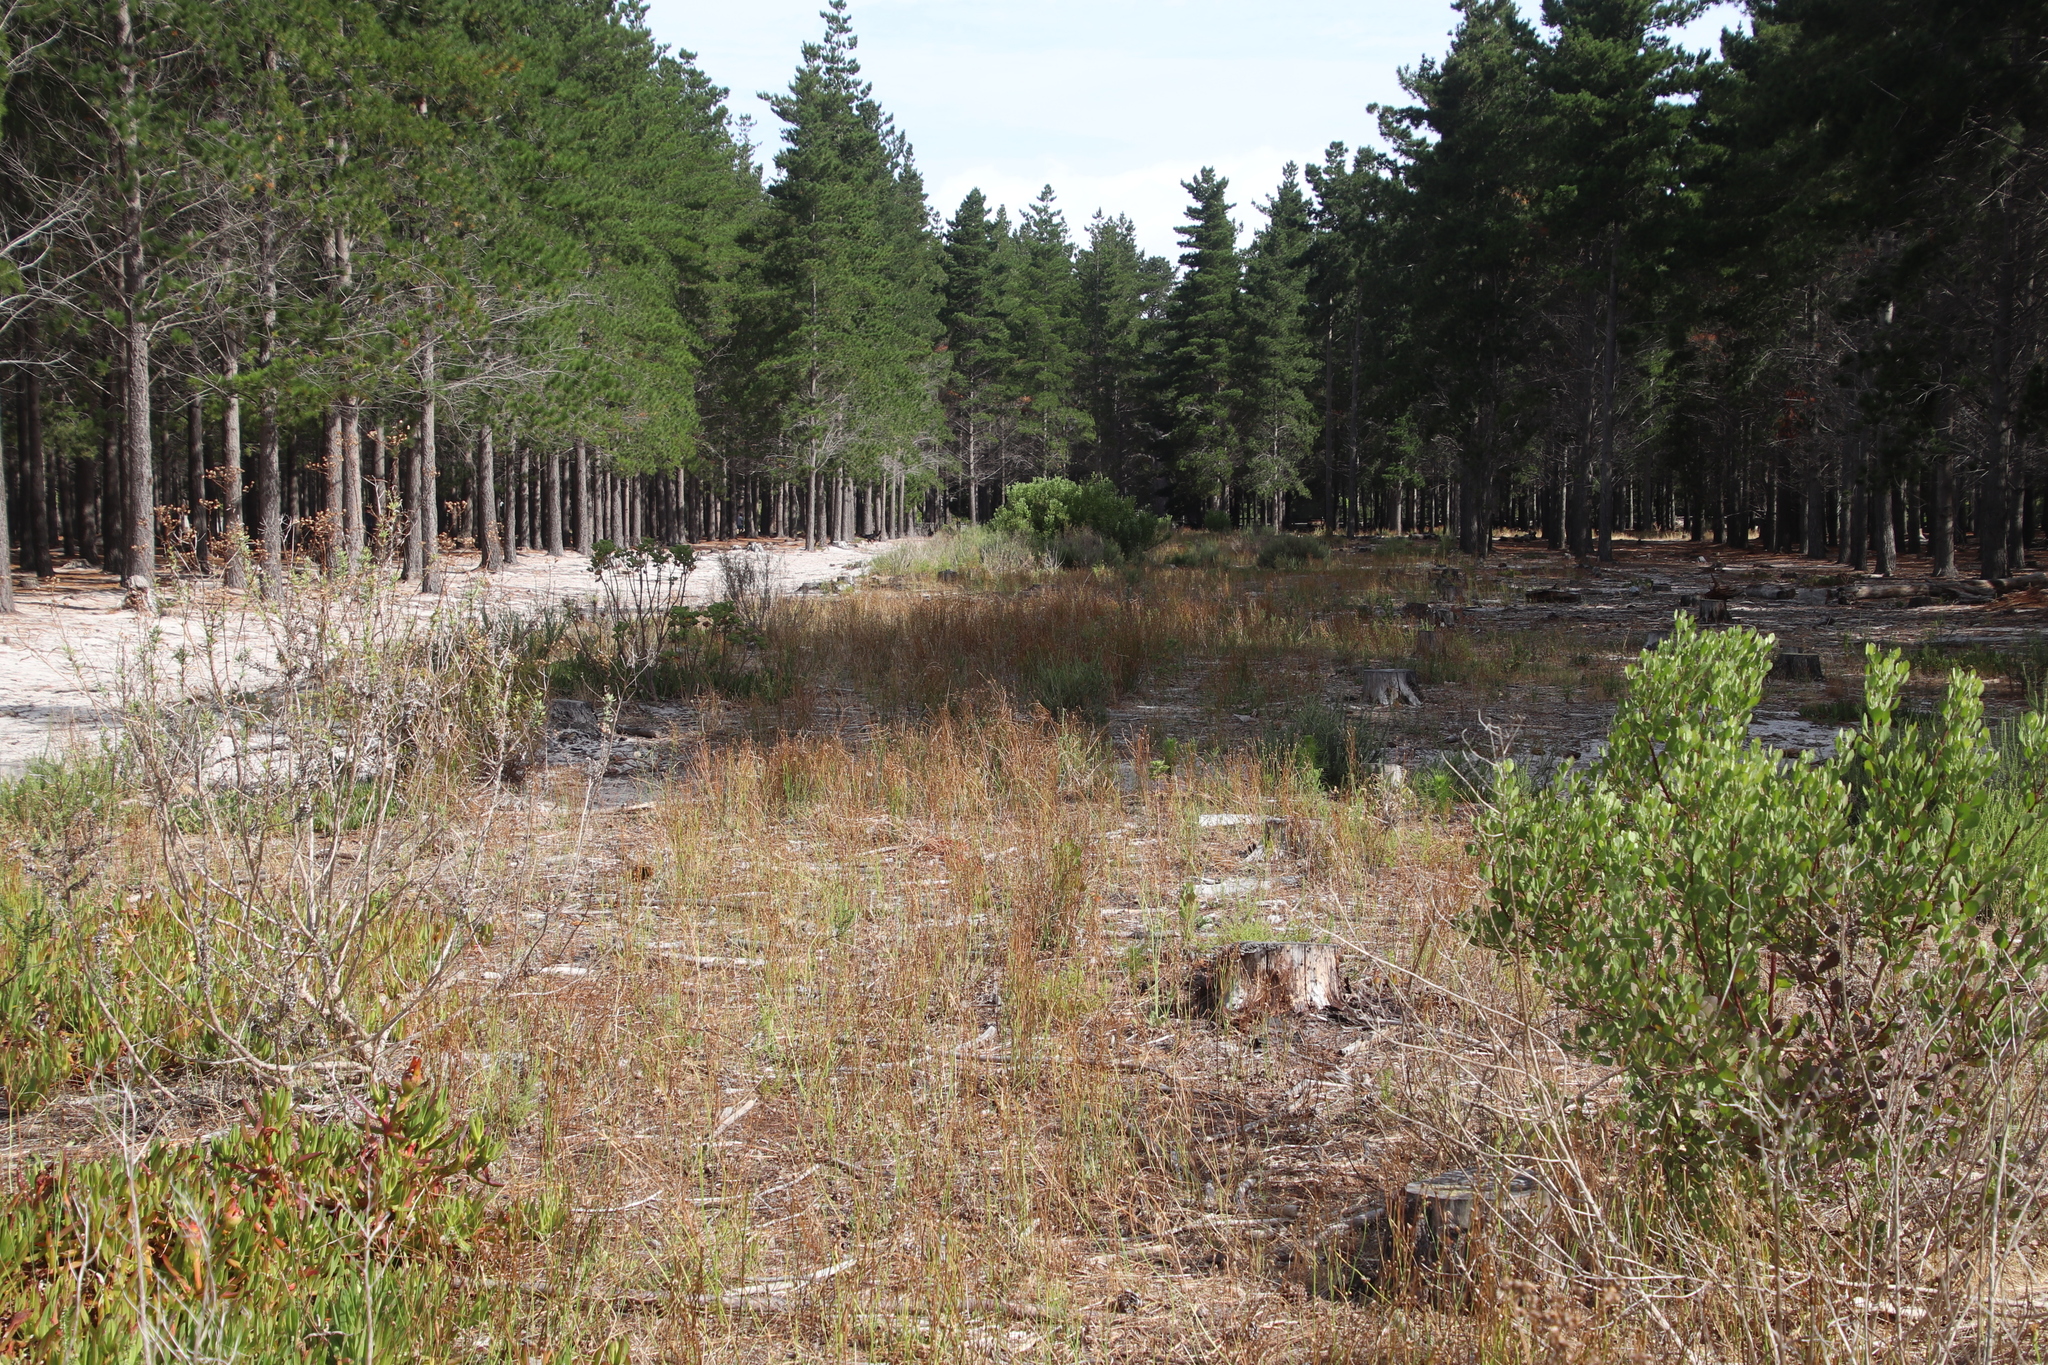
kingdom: Plantae
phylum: Tracheophyta
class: Magnoliopsida
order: Asterales
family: Asteraceae
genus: Hypochaeris
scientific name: Hypochaeris radicata
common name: Flatweed
